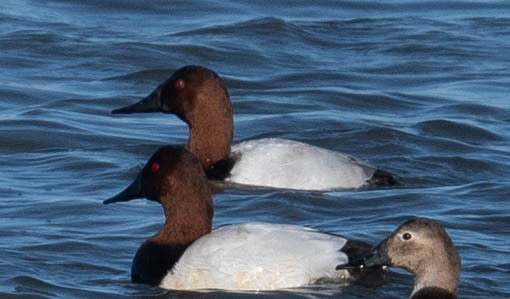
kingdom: Animalia
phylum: Chordata
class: Aves
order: Anseriformes
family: Anatidae
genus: Aythya
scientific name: Aythya valisineria
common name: Canvasback
